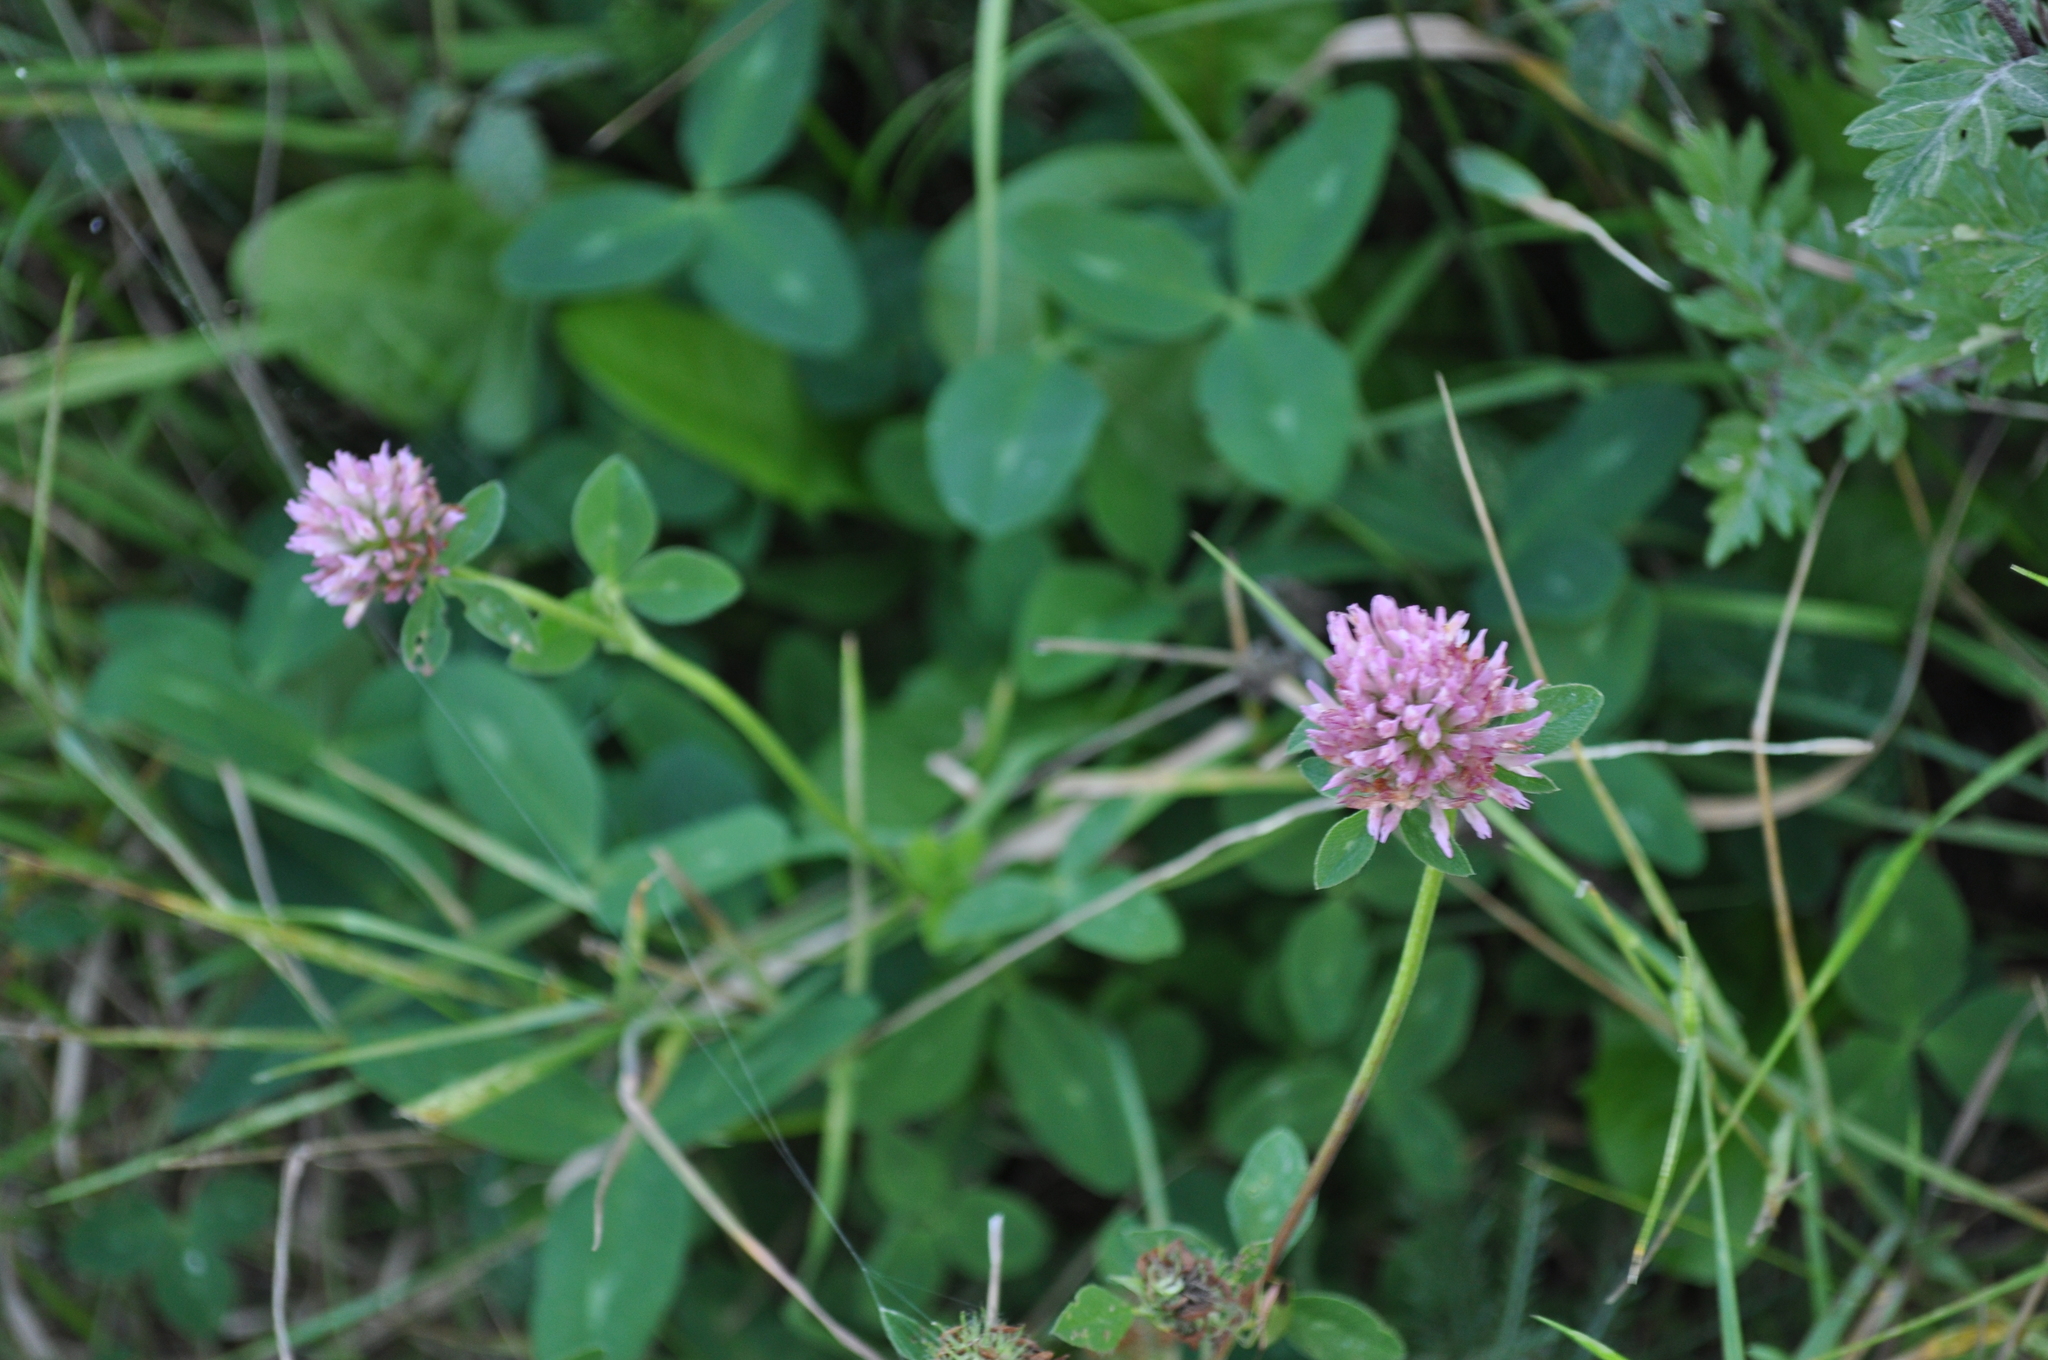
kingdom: Plantae
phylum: Tracheophyta
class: Magnoliopsida
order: Fabales
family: Fabaceae
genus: Trifolium
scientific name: Trifolium pratense
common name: Red clover
